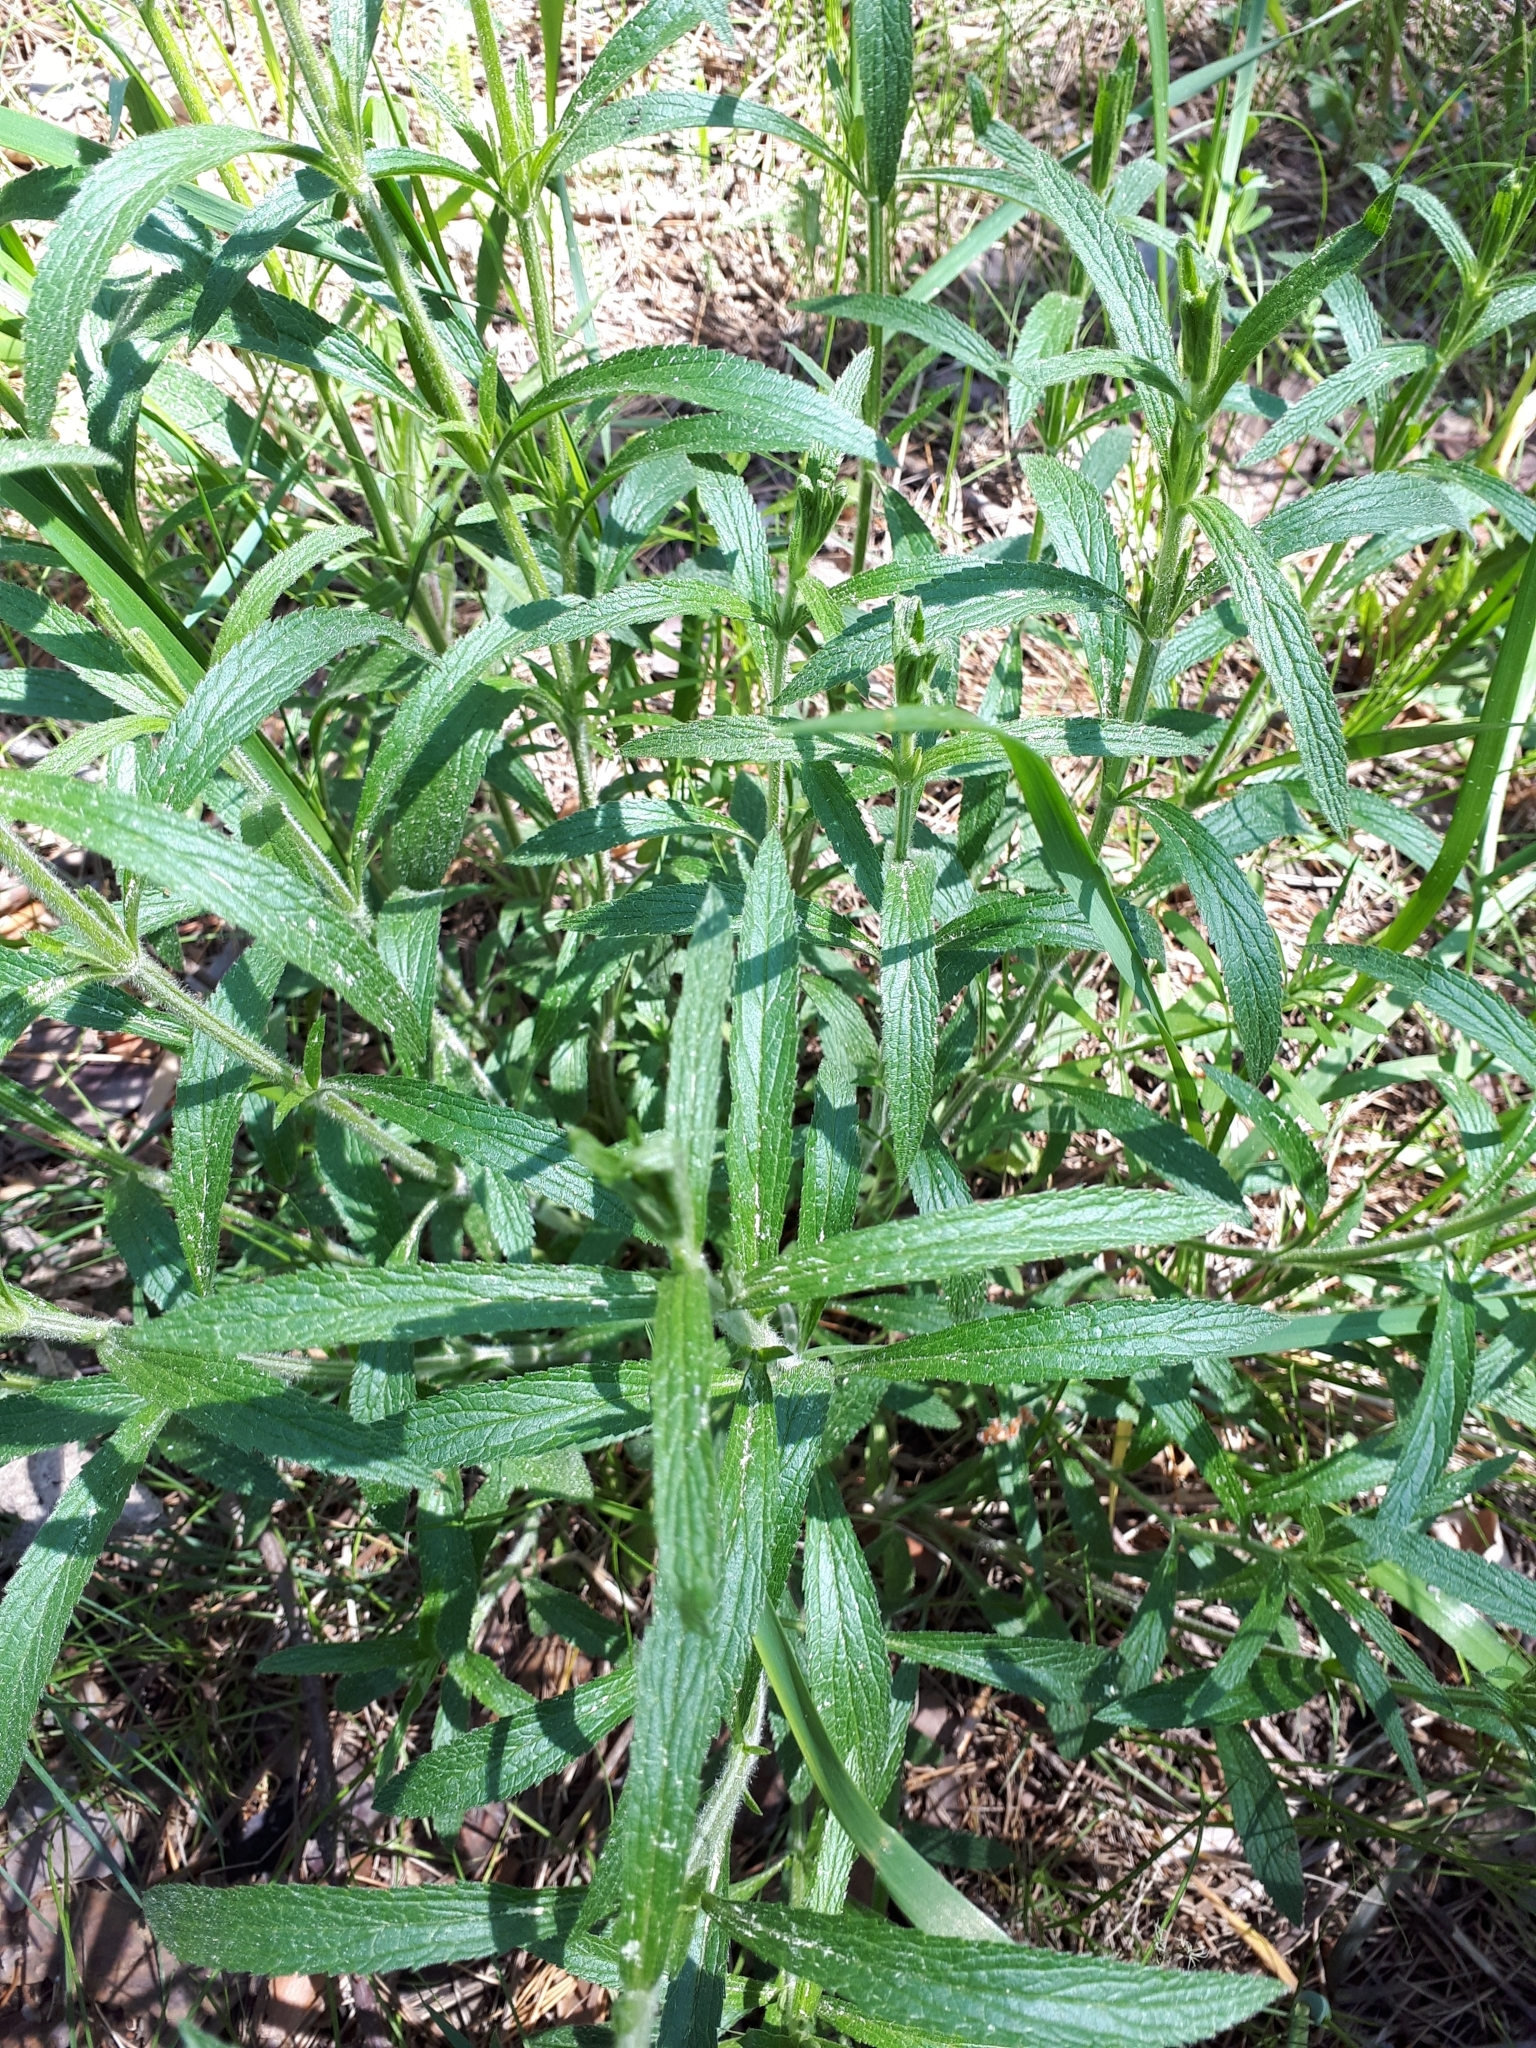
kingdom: Plantae
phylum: Tracheophyta
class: Magnoliopsida
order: Lamiales
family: Lamiaceae
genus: Stachys
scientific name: Stachys recta
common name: Perennial yellow-woundwort
